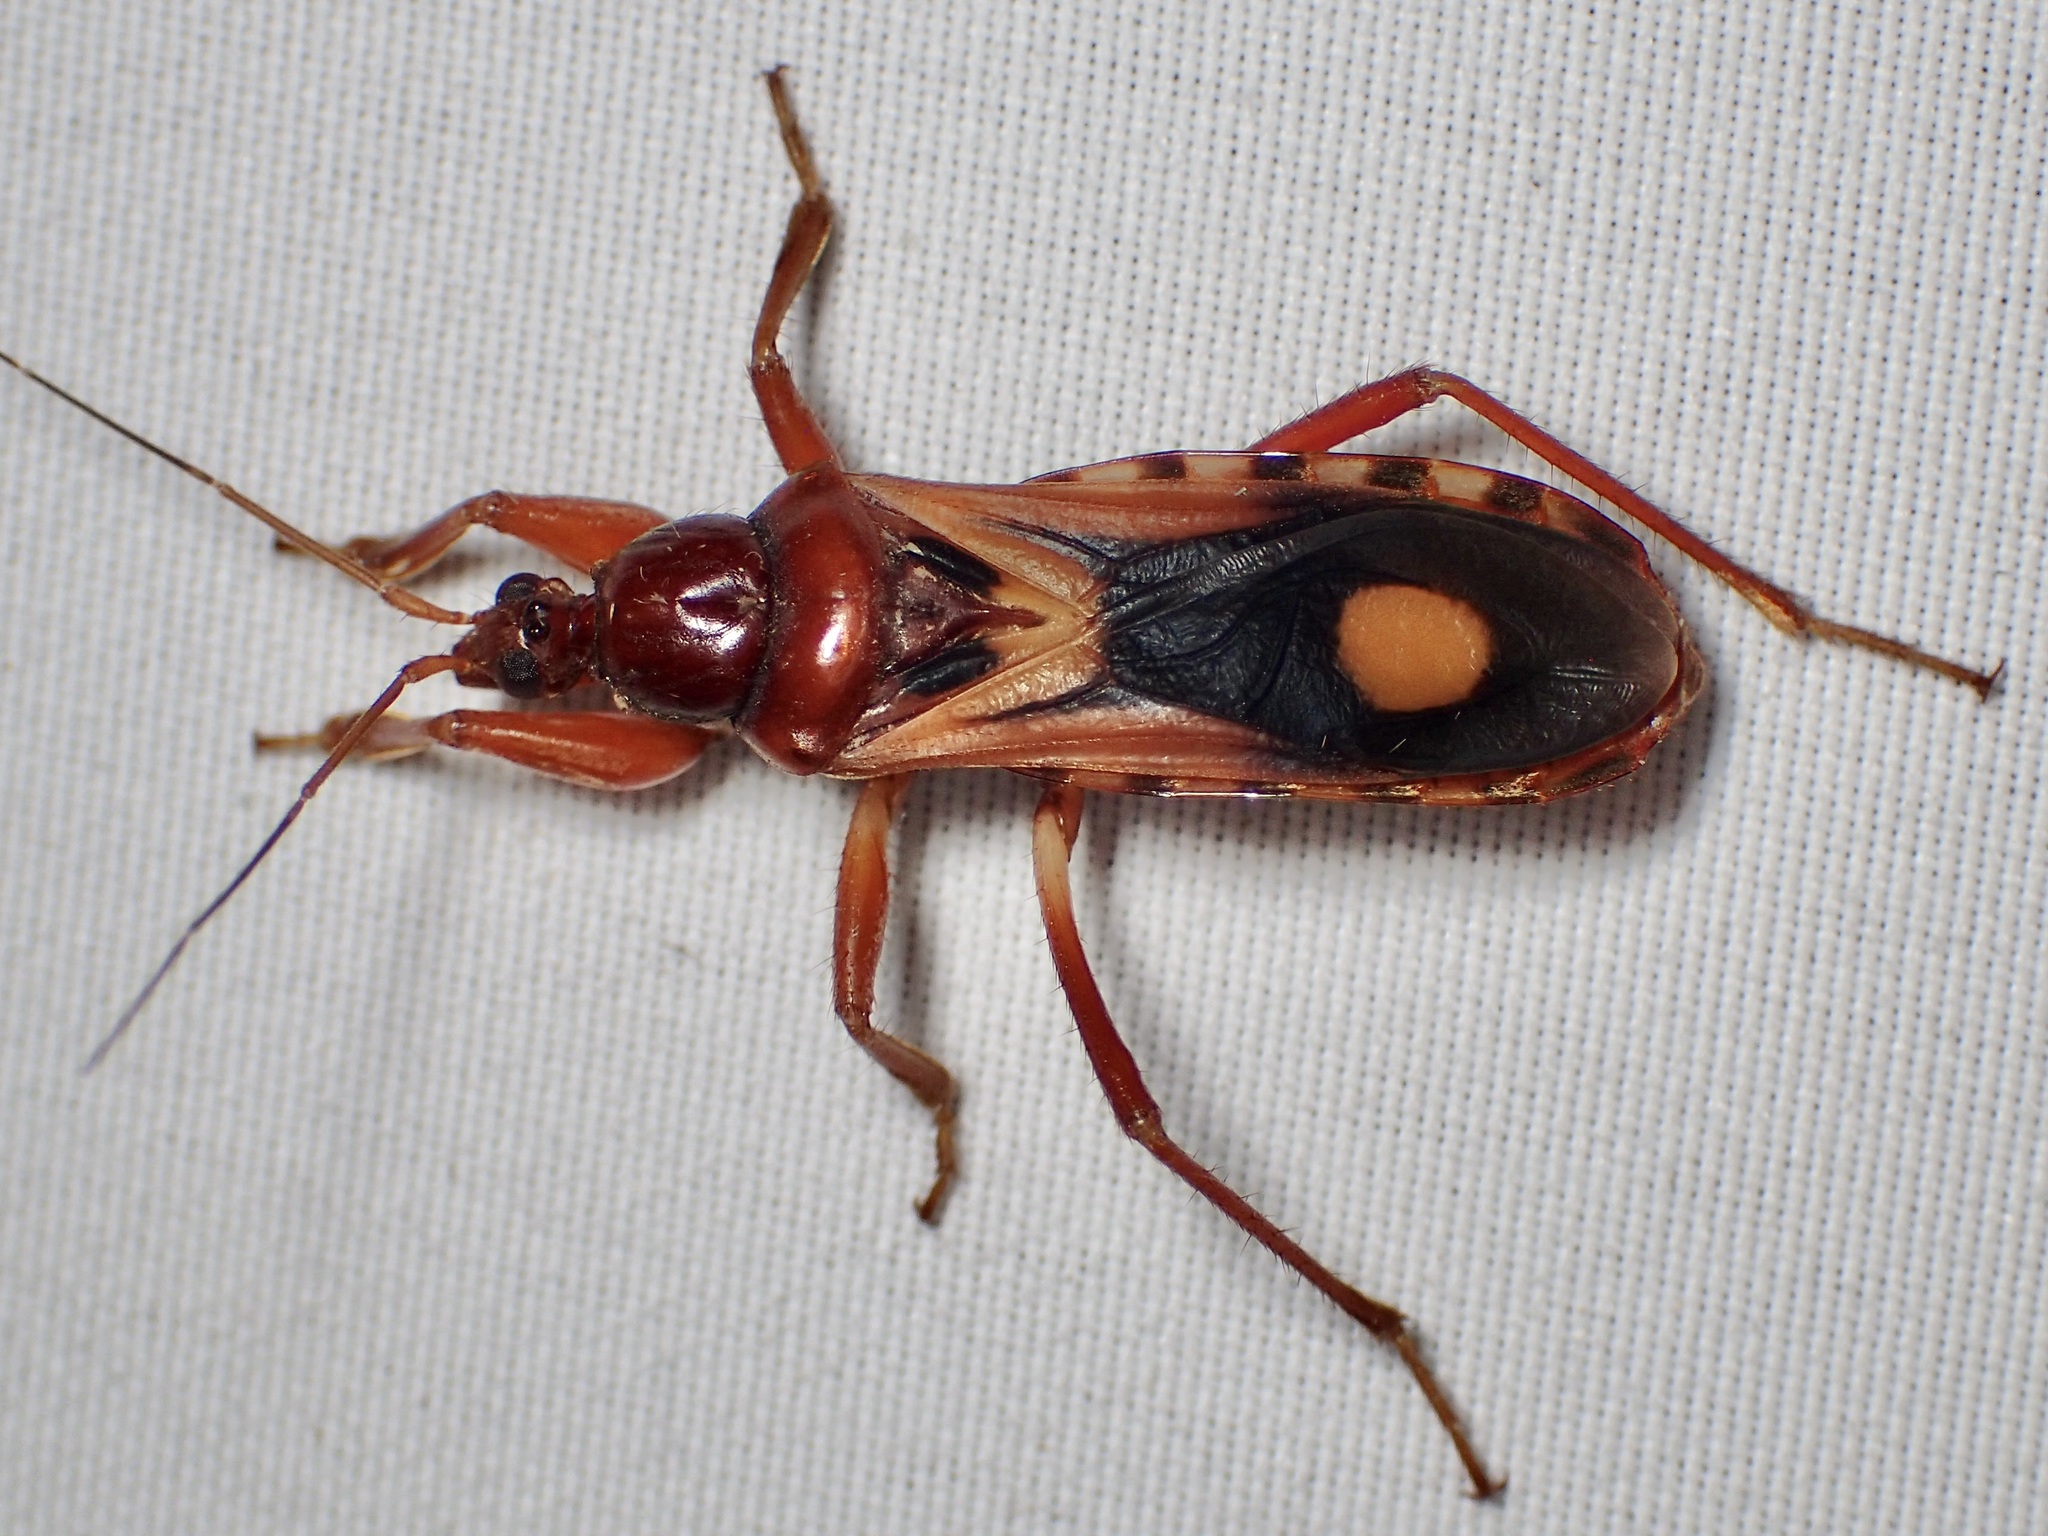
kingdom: Animalia
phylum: Arthropoda
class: Insecta
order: Hemiptera
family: Reduviidae
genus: Rasahus
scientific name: Rasahus thoracicus
